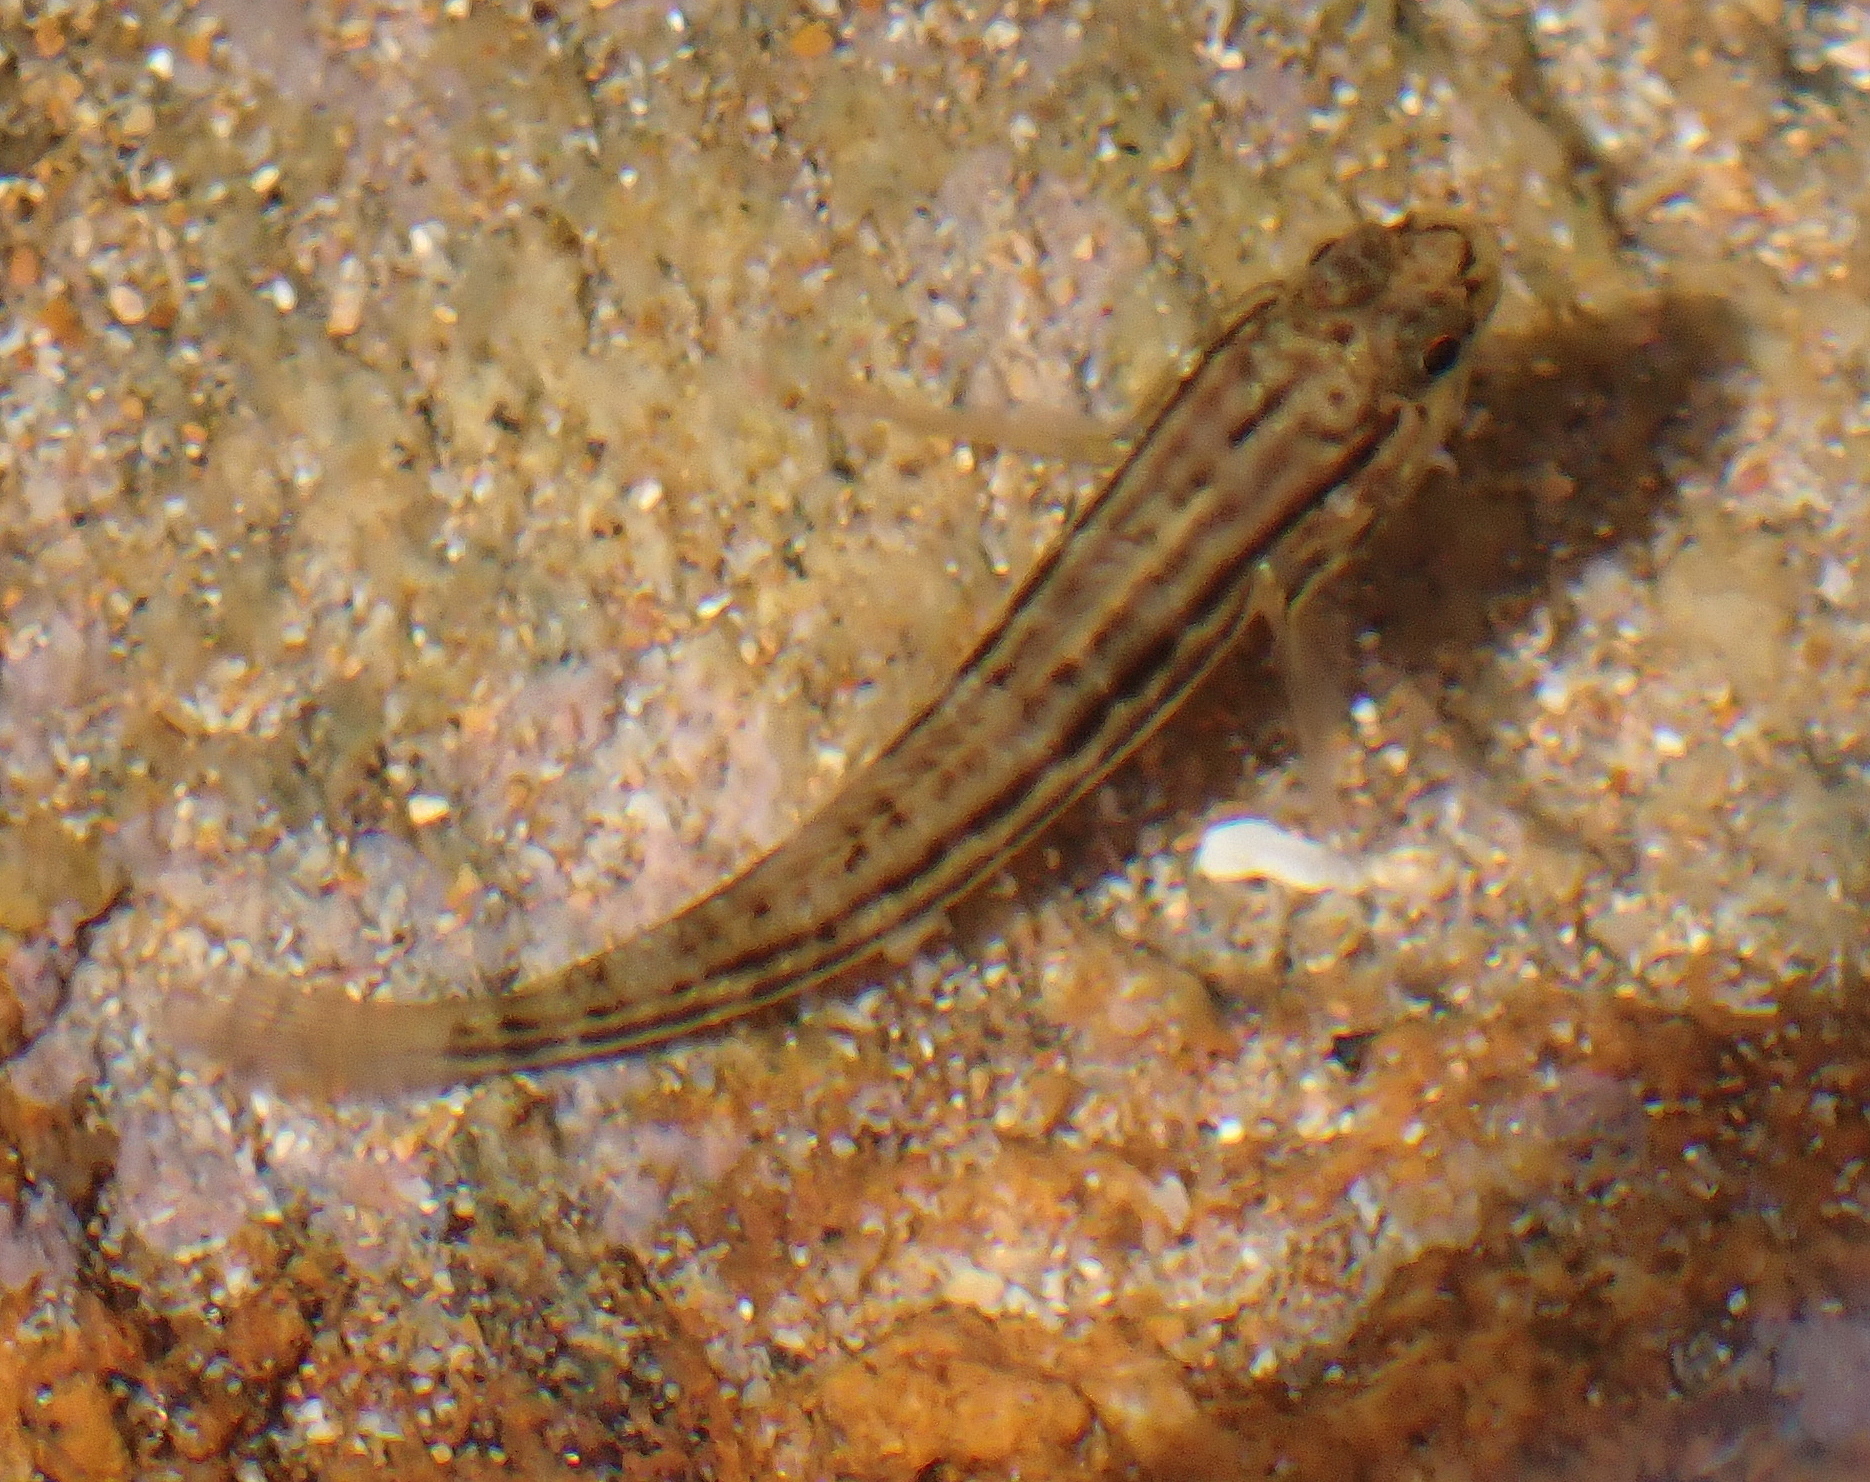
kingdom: Animalia
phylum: Chordata
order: Perciformes
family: Gobiidae
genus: Bathygobius
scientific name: Bathygobius casamancus
